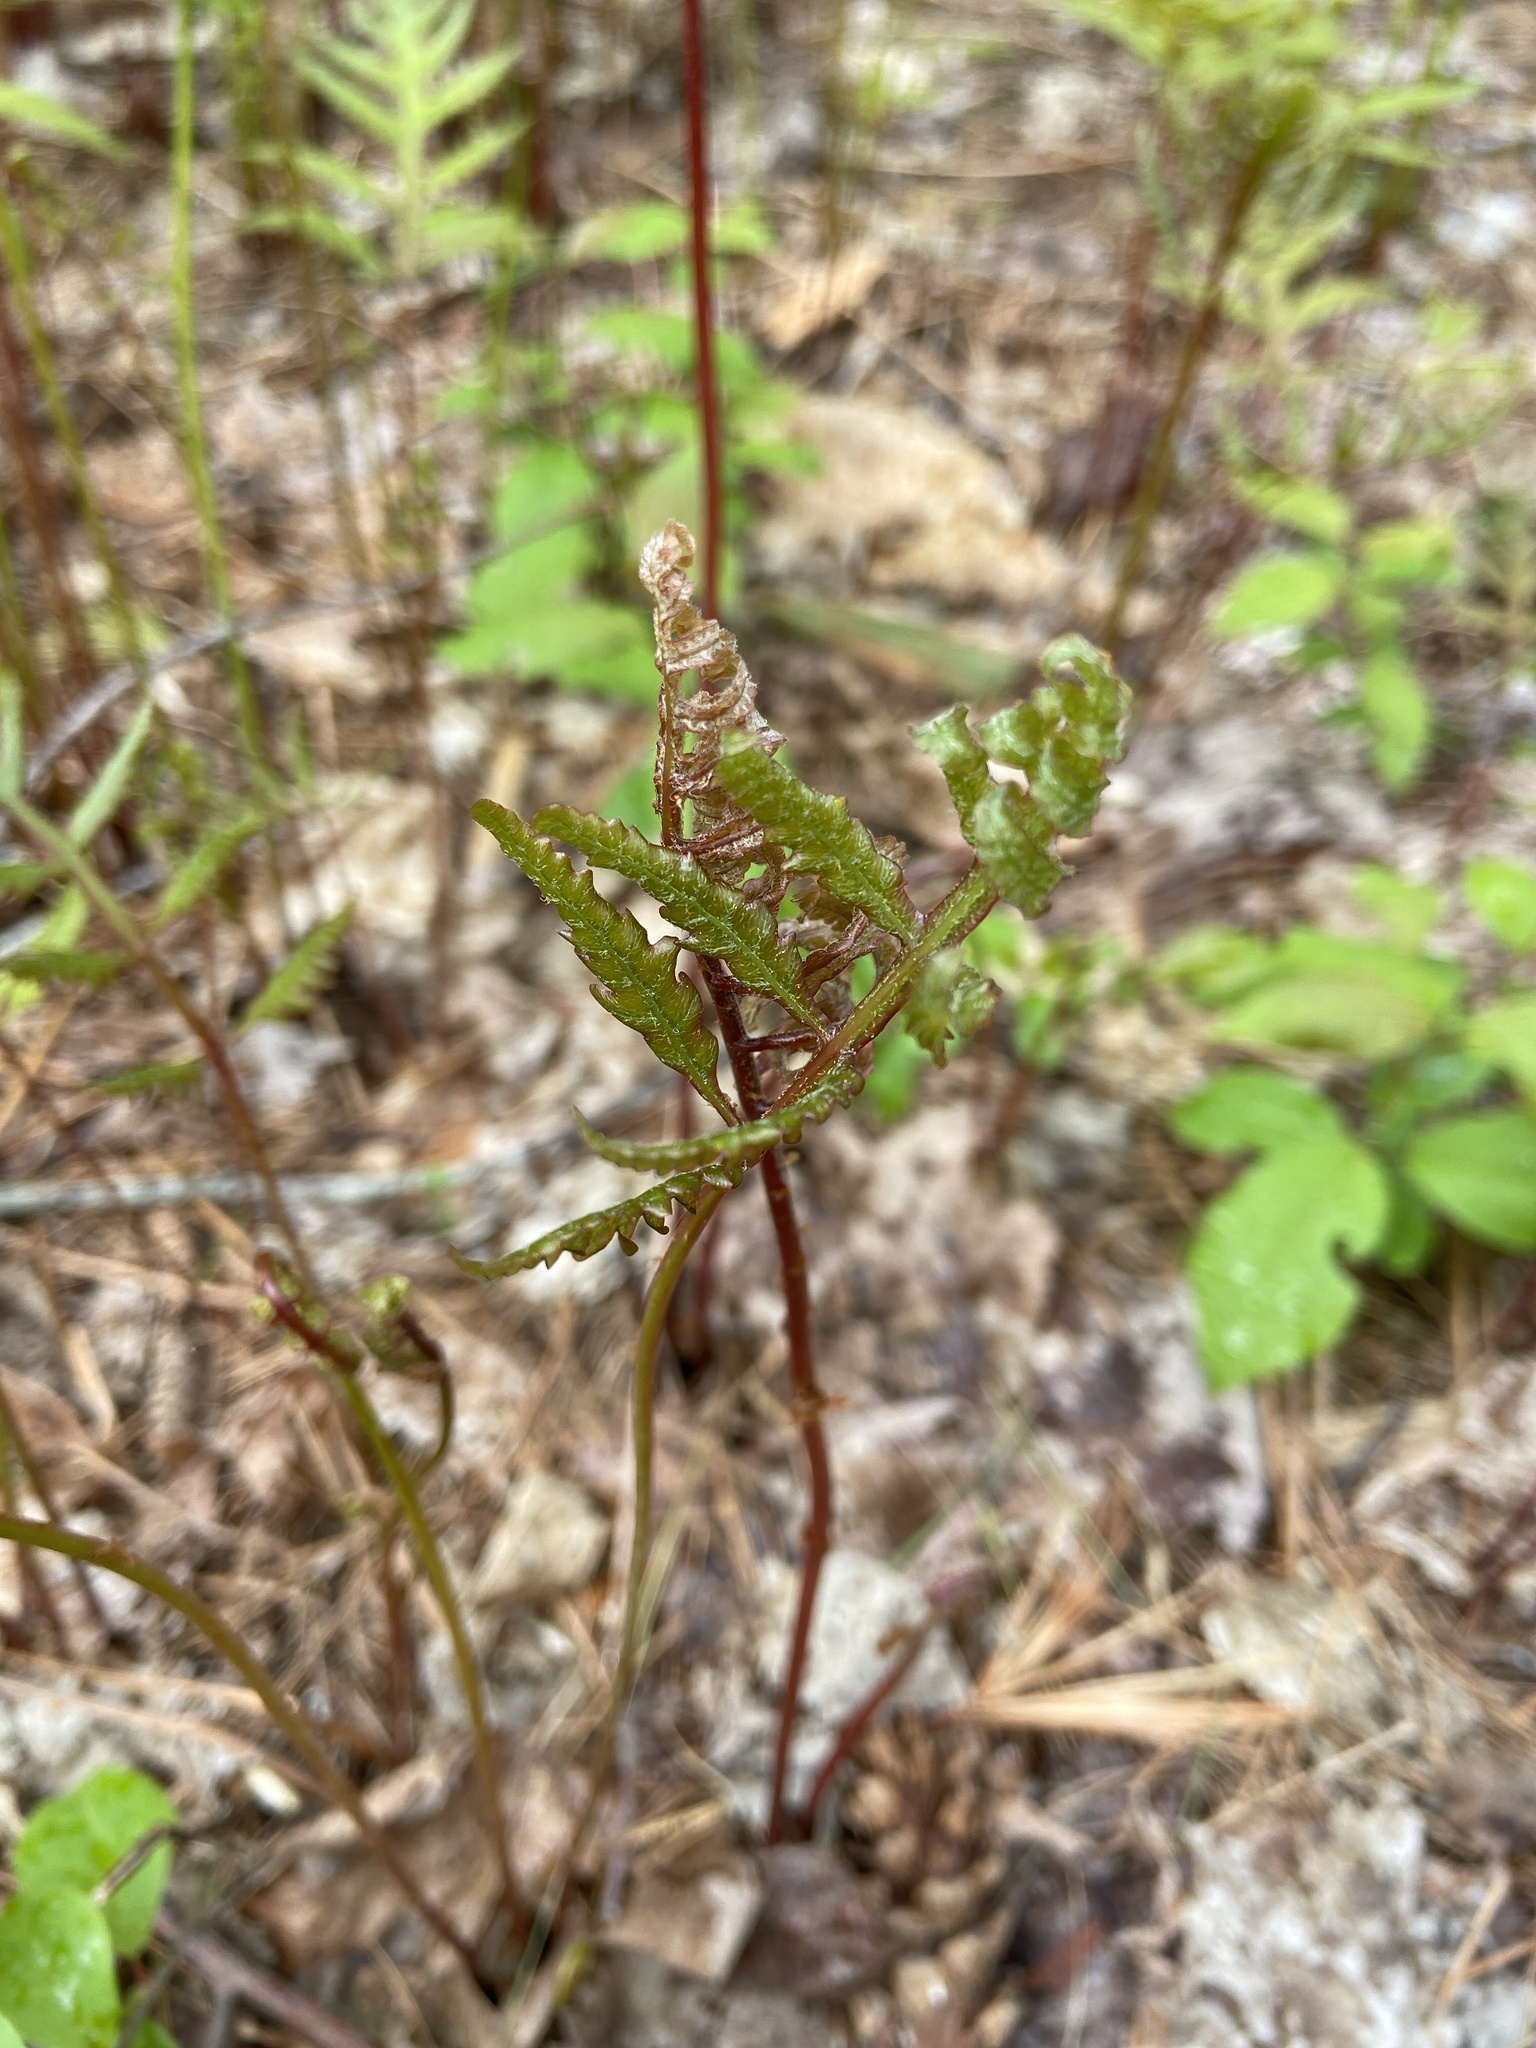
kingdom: Plantae
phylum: Tracheophyta
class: Polypodiopsida
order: Polypodiales
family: Onocleaceae
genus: Onoclea
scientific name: Onoclea sensibilis
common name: Sensitive fern
